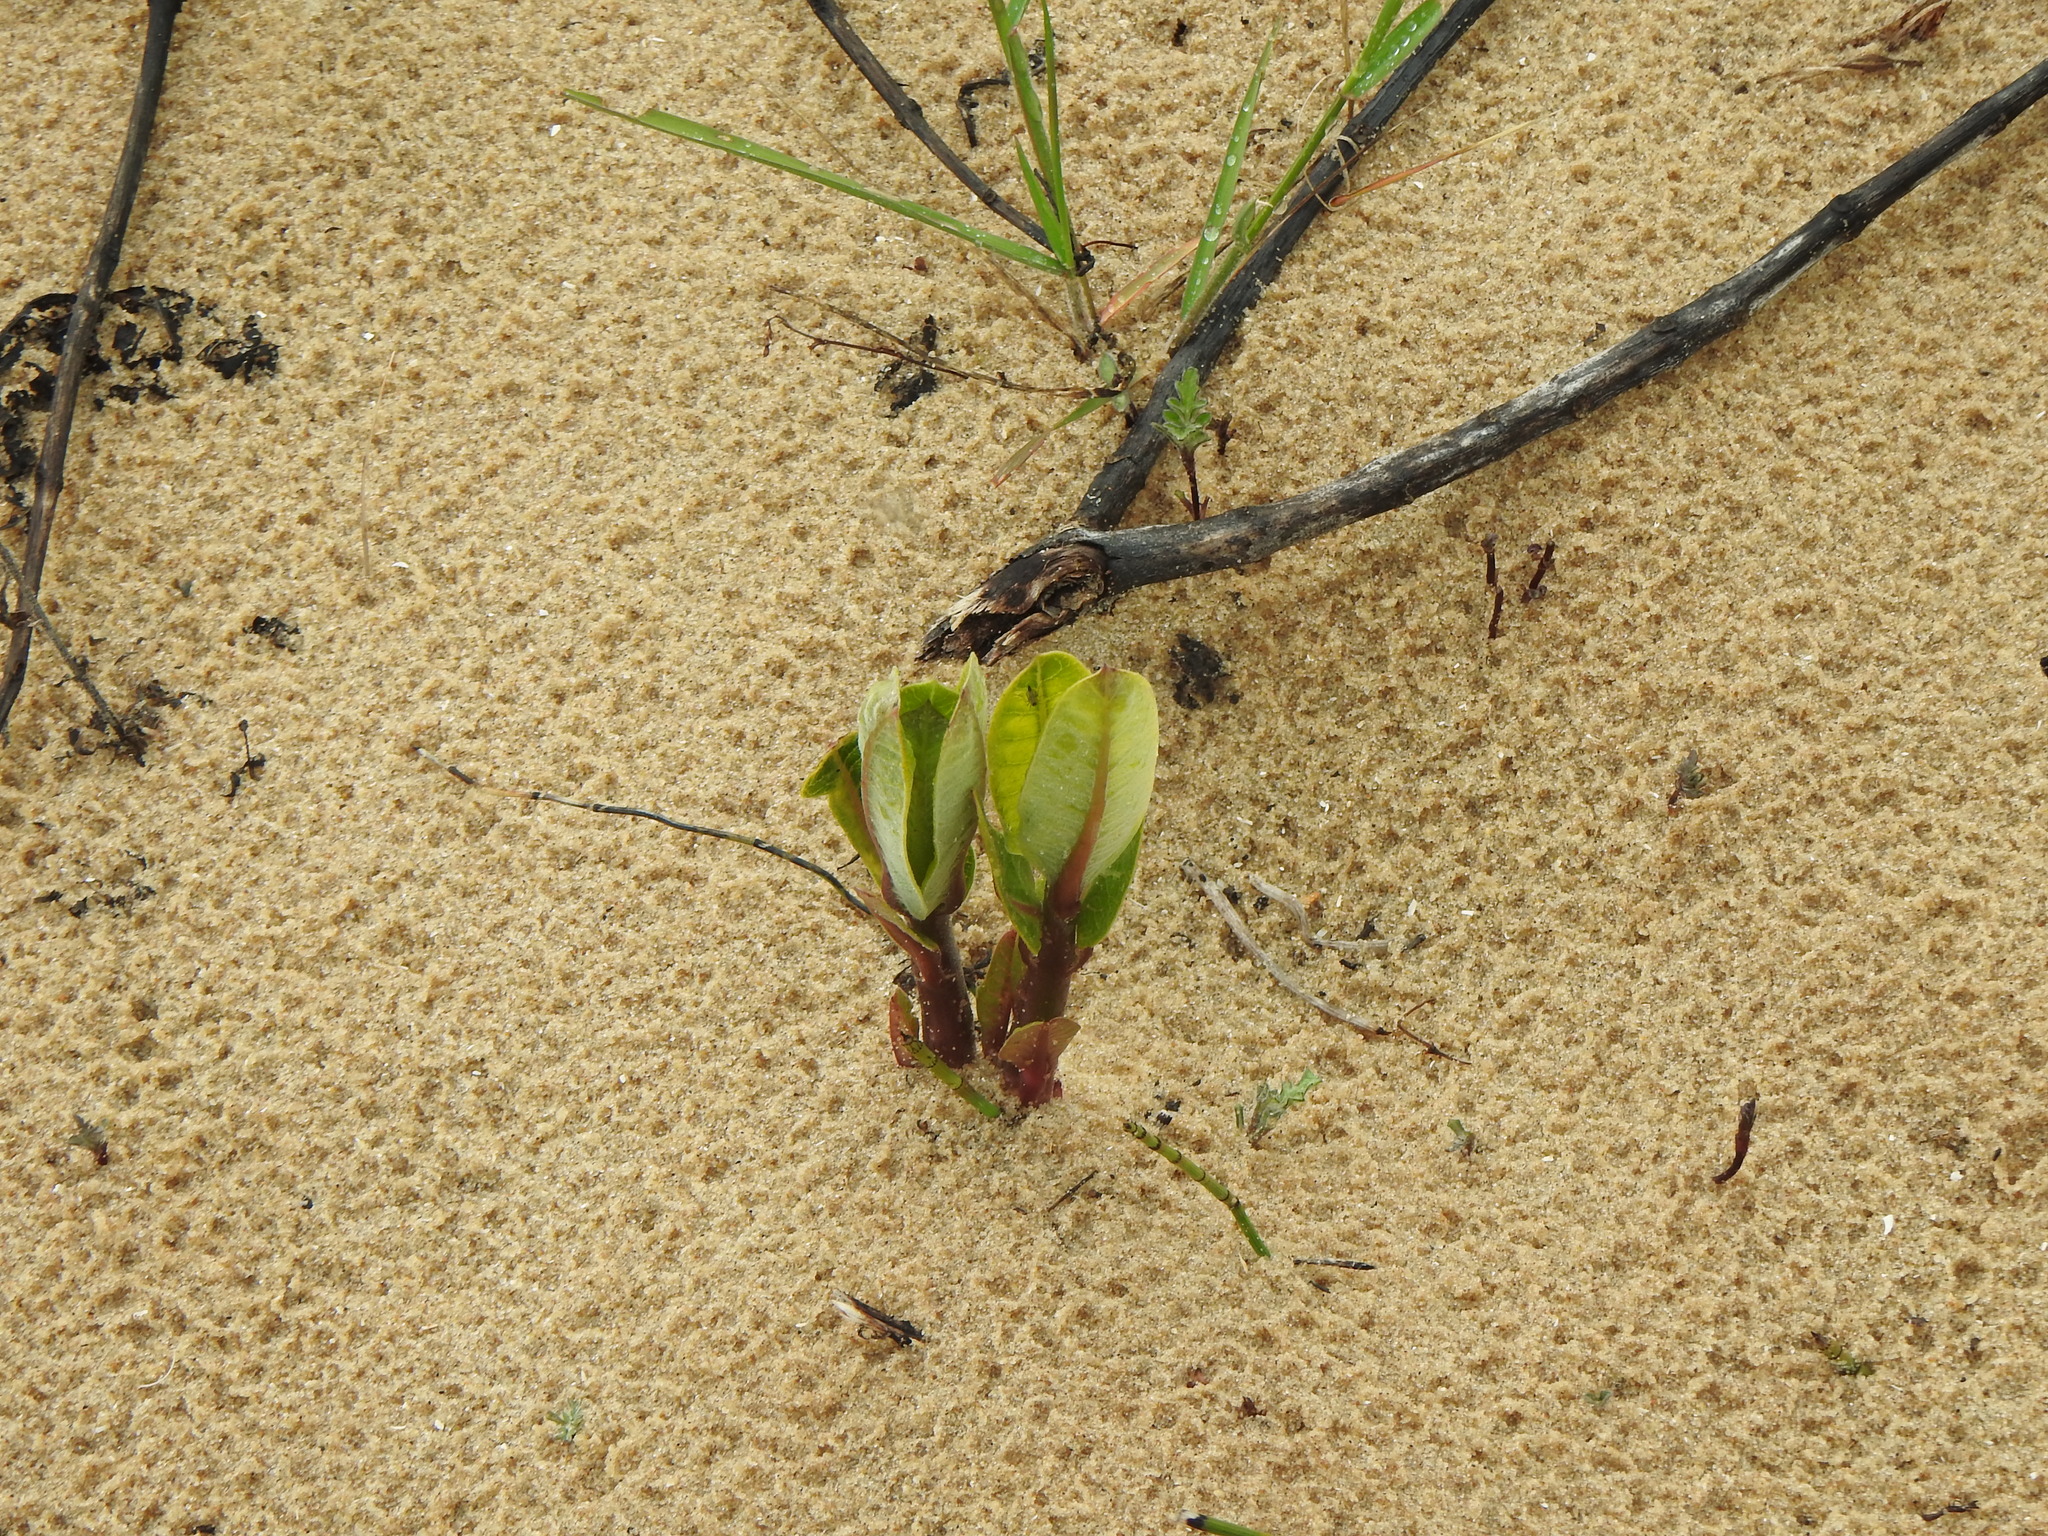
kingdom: Plantae
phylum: Tracheophyta
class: Magnoliopsida
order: Gentianales
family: Apocynaceae
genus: Asclepias
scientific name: Asclepias syriaca
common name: Common milkweed
